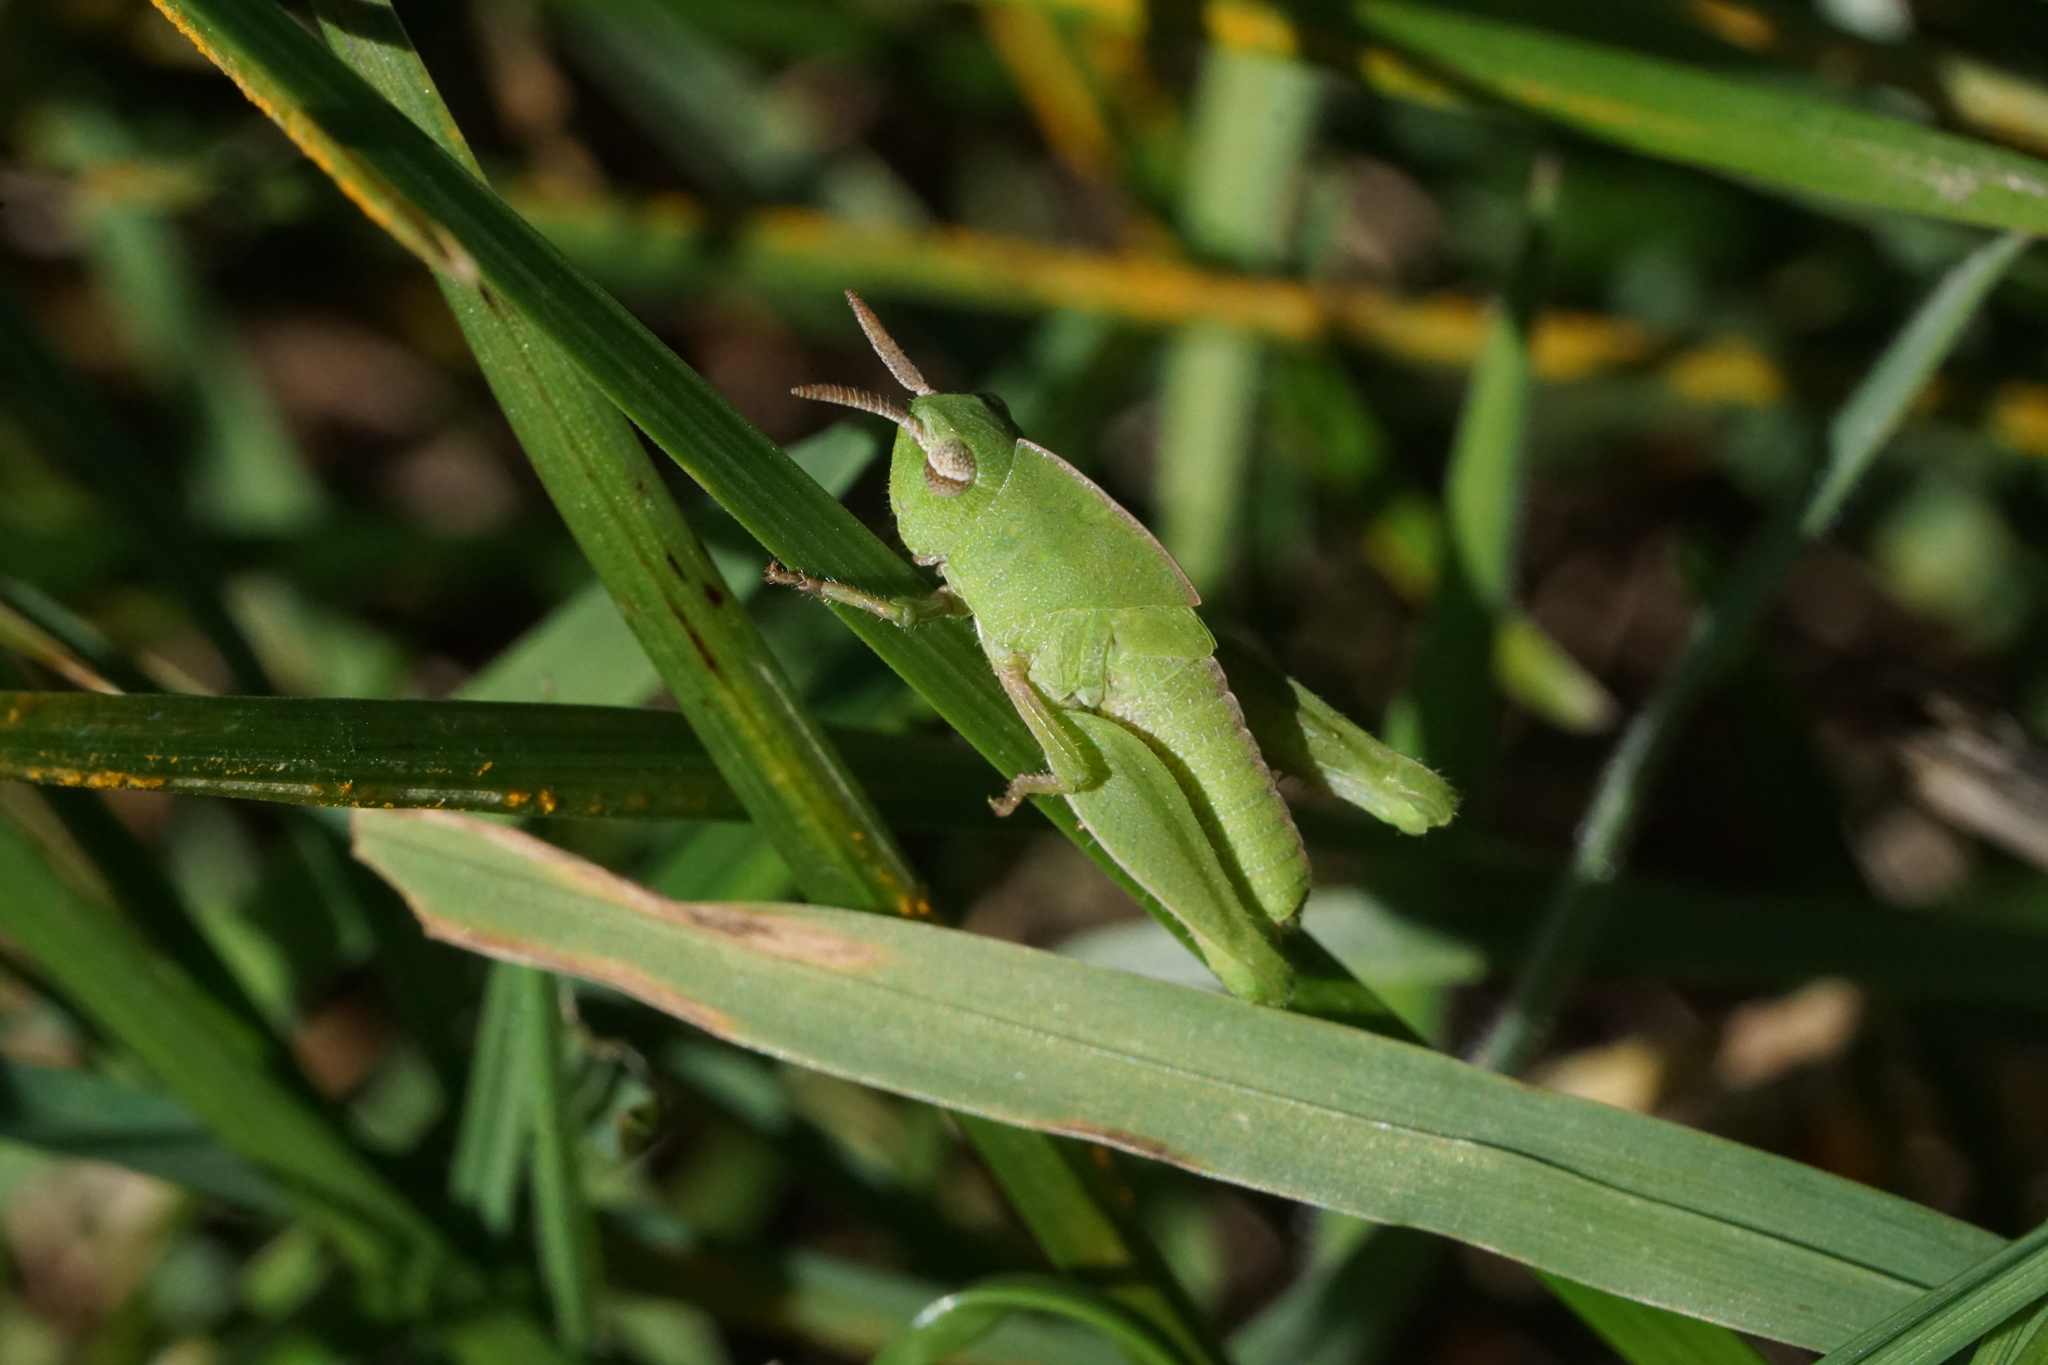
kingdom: Animalia
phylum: Arthropoda
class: Insecta
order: Orthoptera
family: Acrididae
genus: Chortophaga
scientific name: Chortophaga viridifasciata
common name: Green-striped grasshopper
